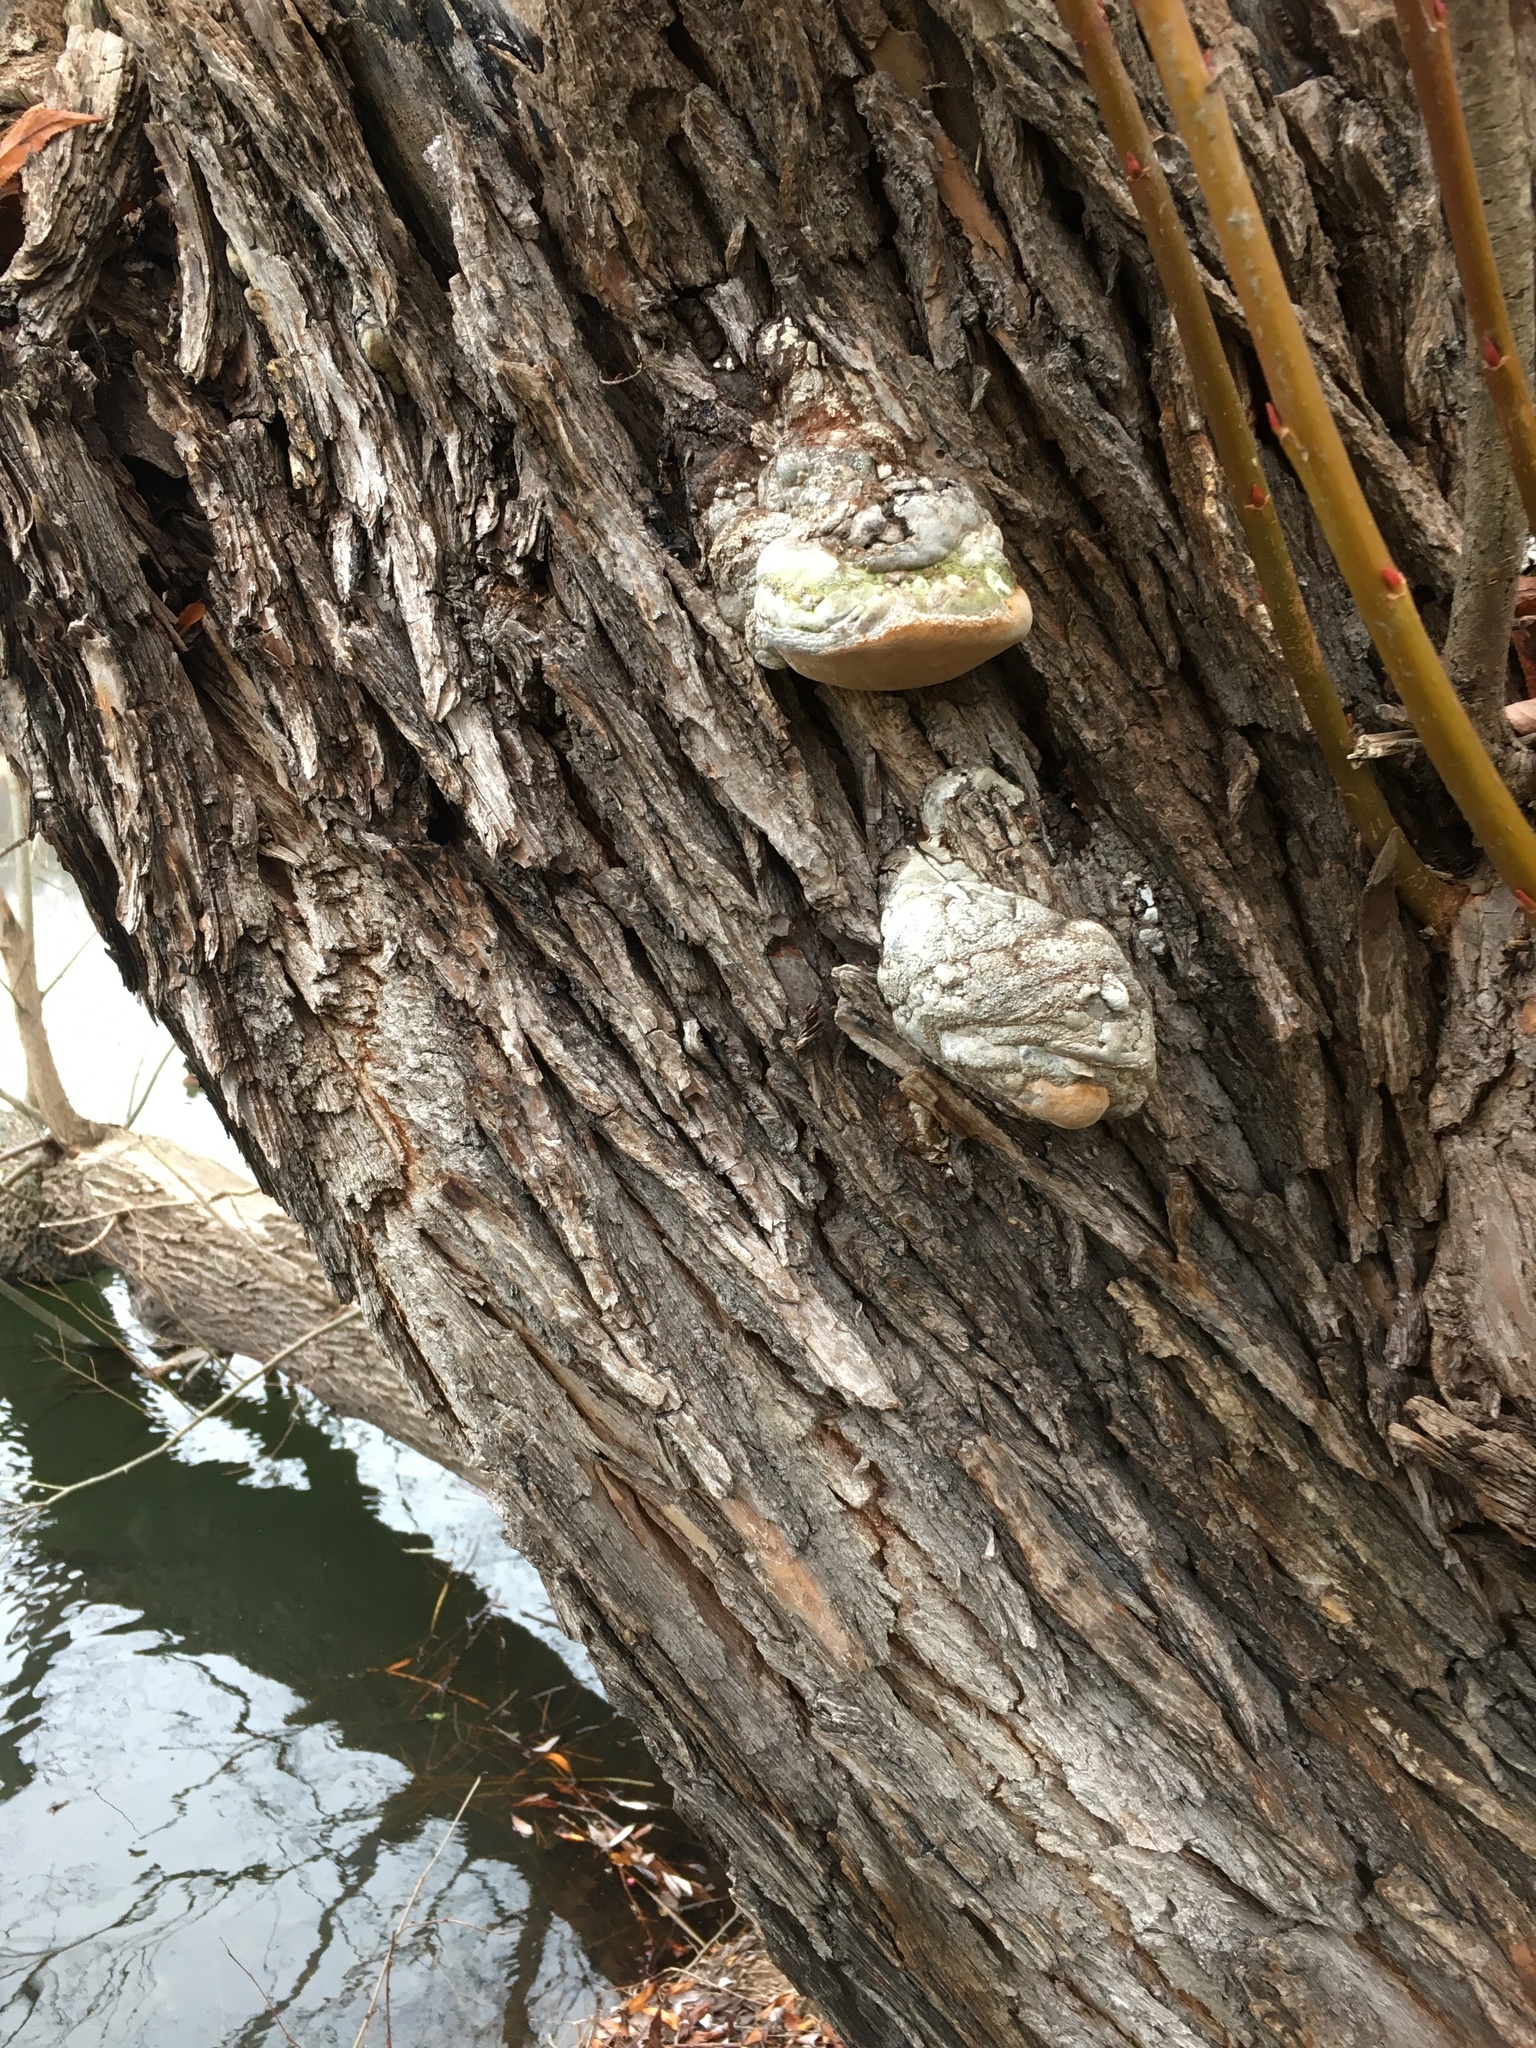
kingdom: Fungi
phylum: Basidiomycota
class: Agaricomycetes
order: Hymenochaetales
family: Hymenochaetaceae
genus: Phellinus
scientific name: Phellinus igniarius
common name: Willow bracket
